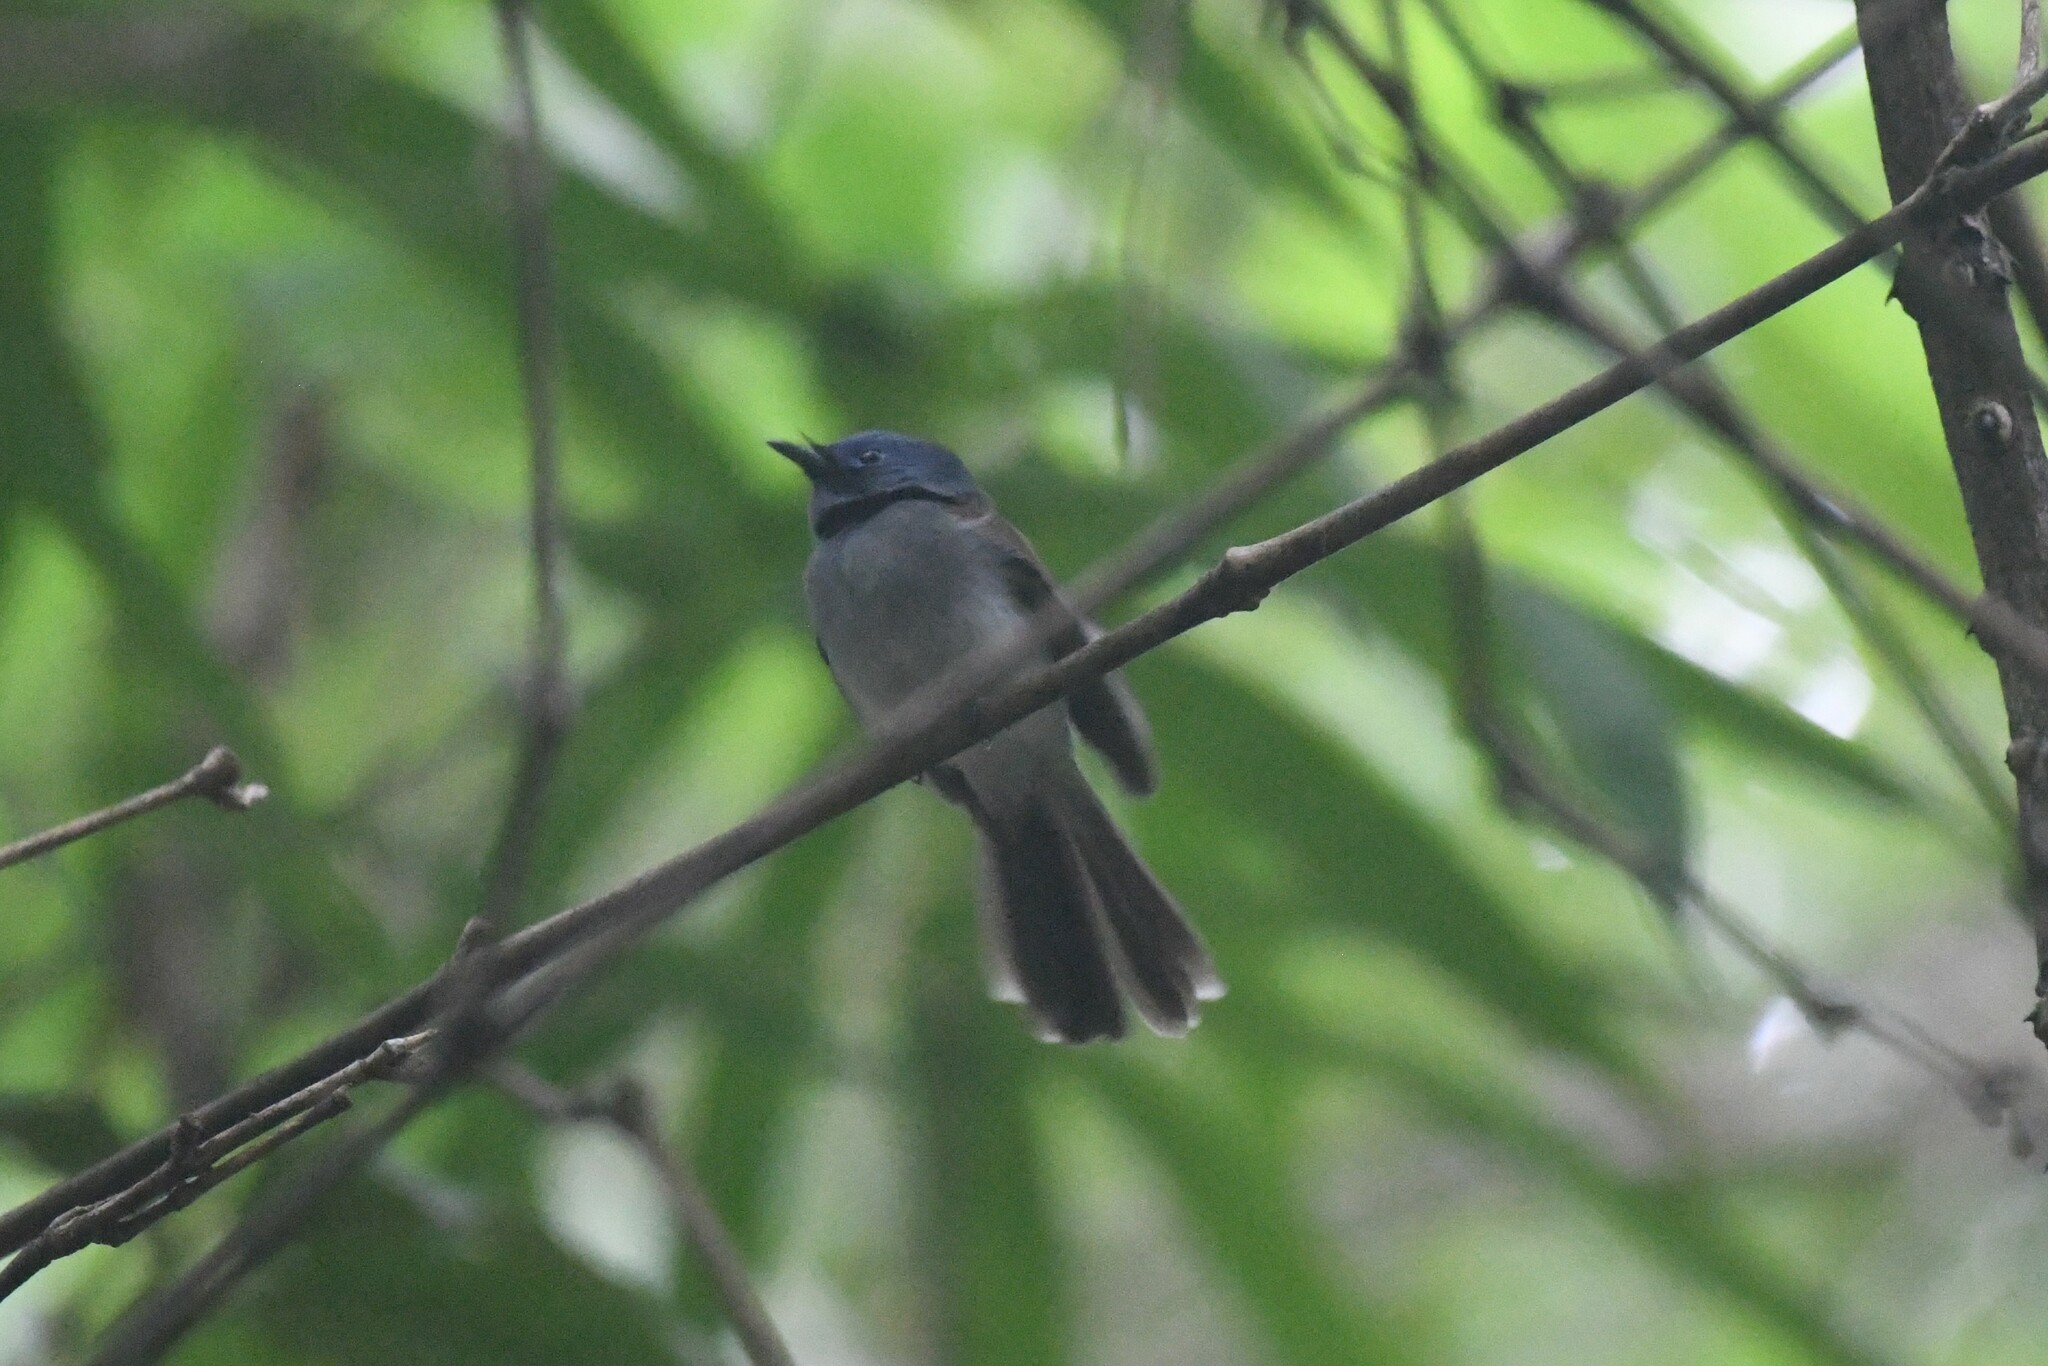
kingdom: Animalia
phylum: Chordata
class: Aves
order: Passeriformes
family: Monarchidae
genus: Hypothymis
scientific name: Hypothymis azurea
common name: Black-naped monarch
